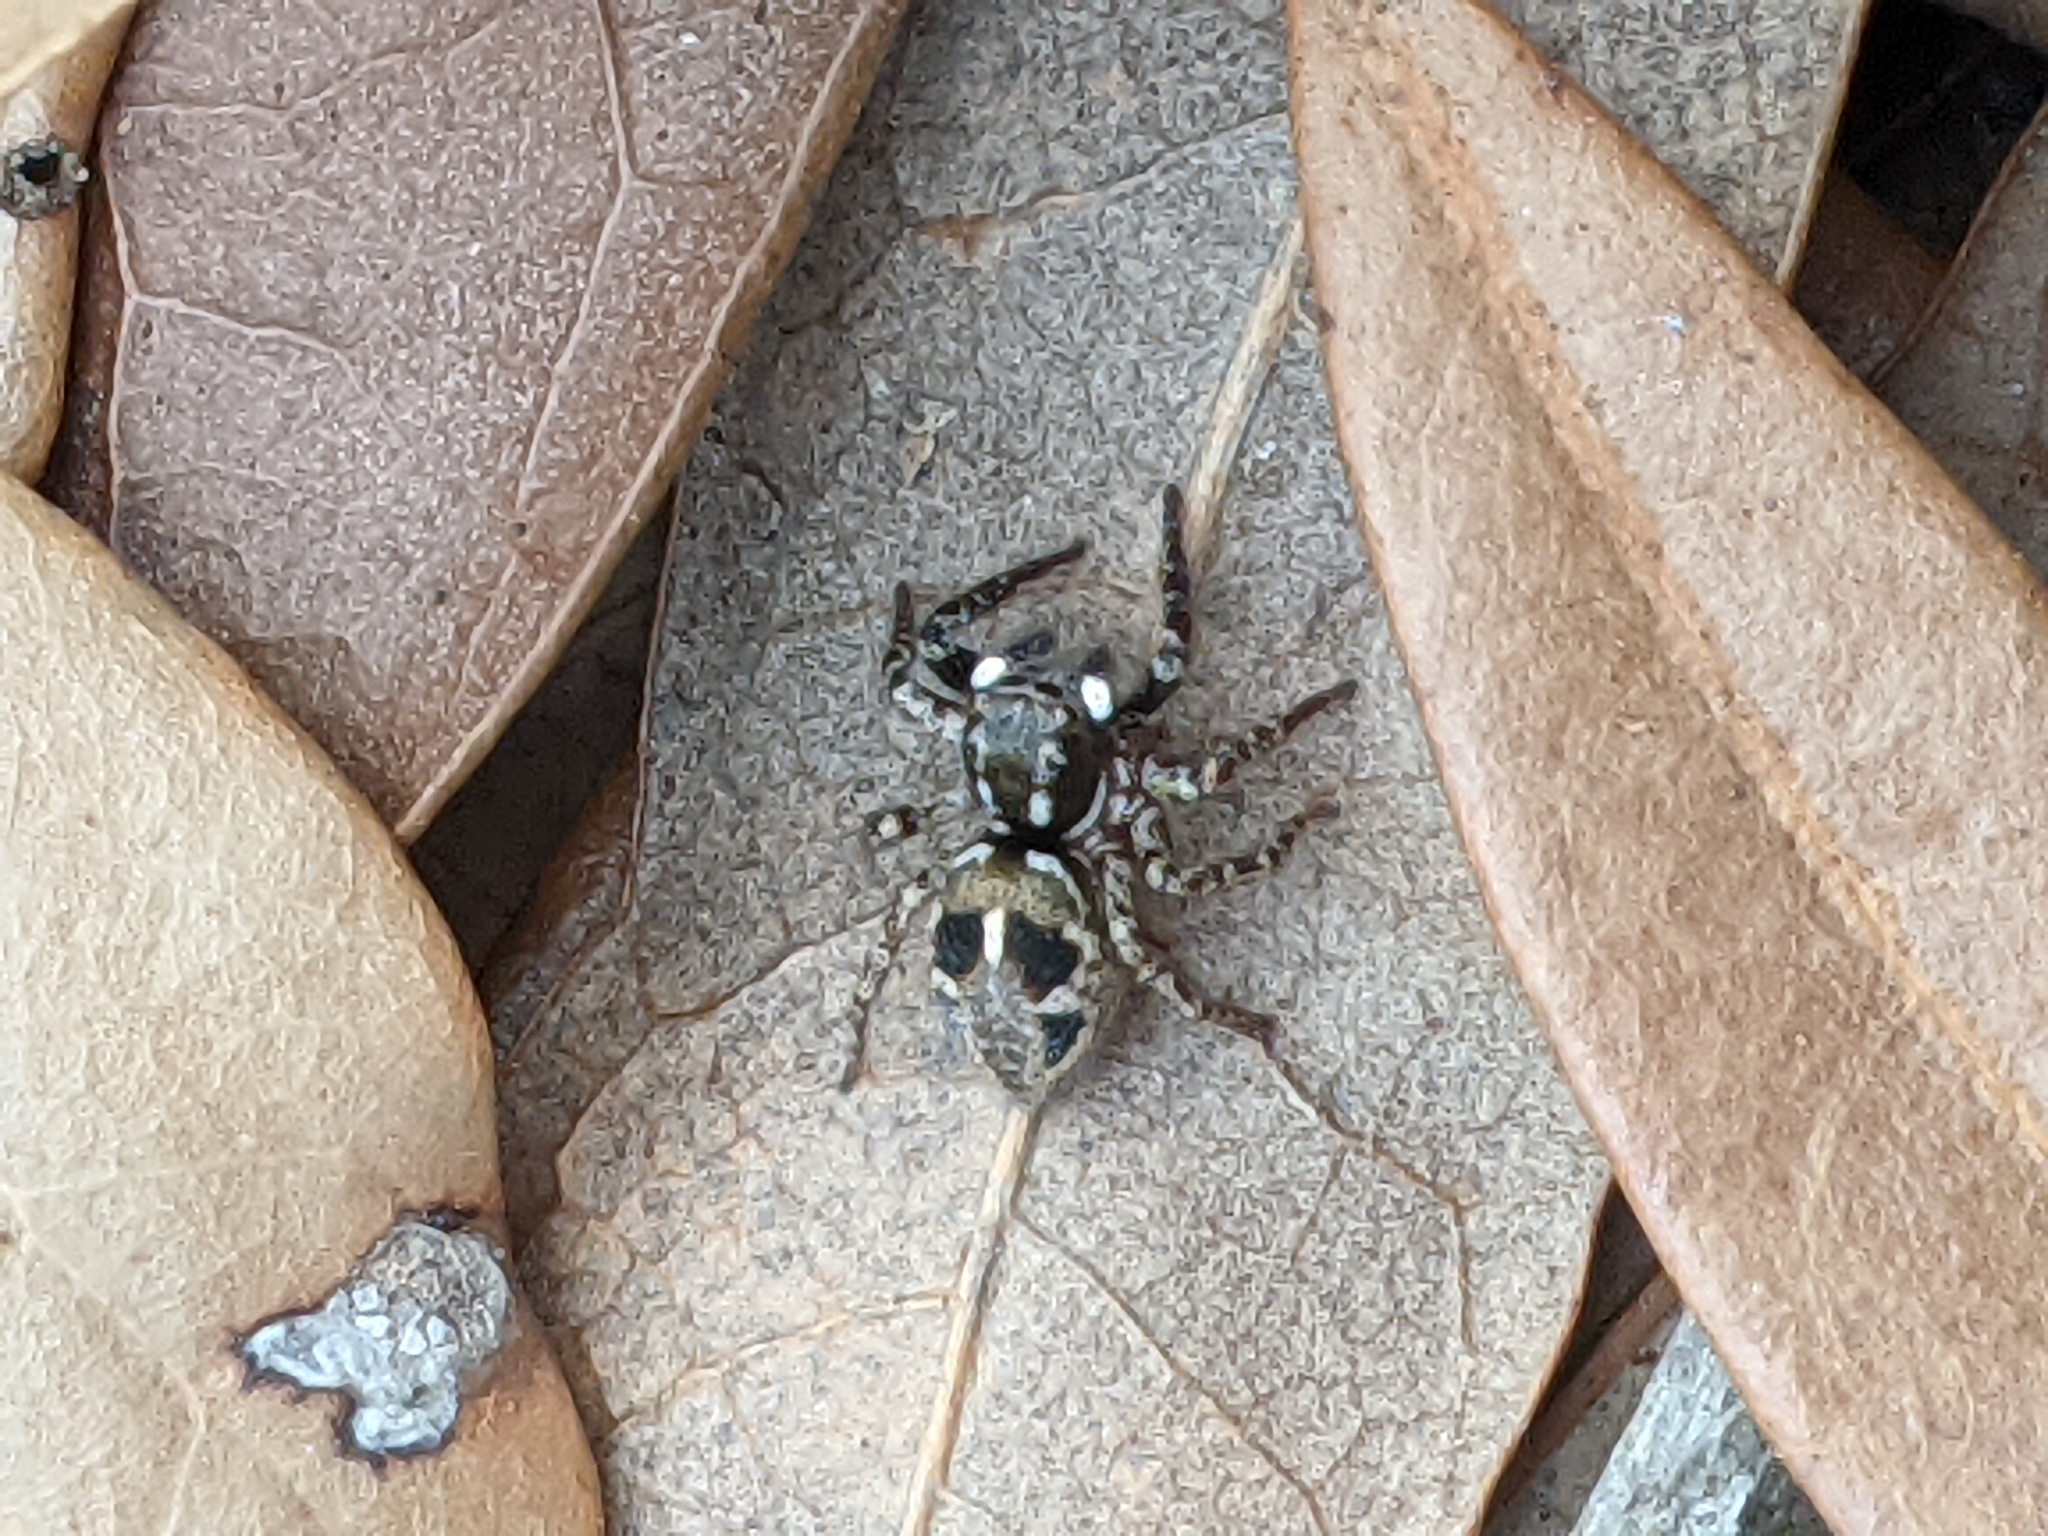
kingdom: Animalia
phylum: Arthropoda
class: Arachnida
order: Araneae
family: Salticidae
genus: Anasaitis
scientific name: Anasaitis canosa
